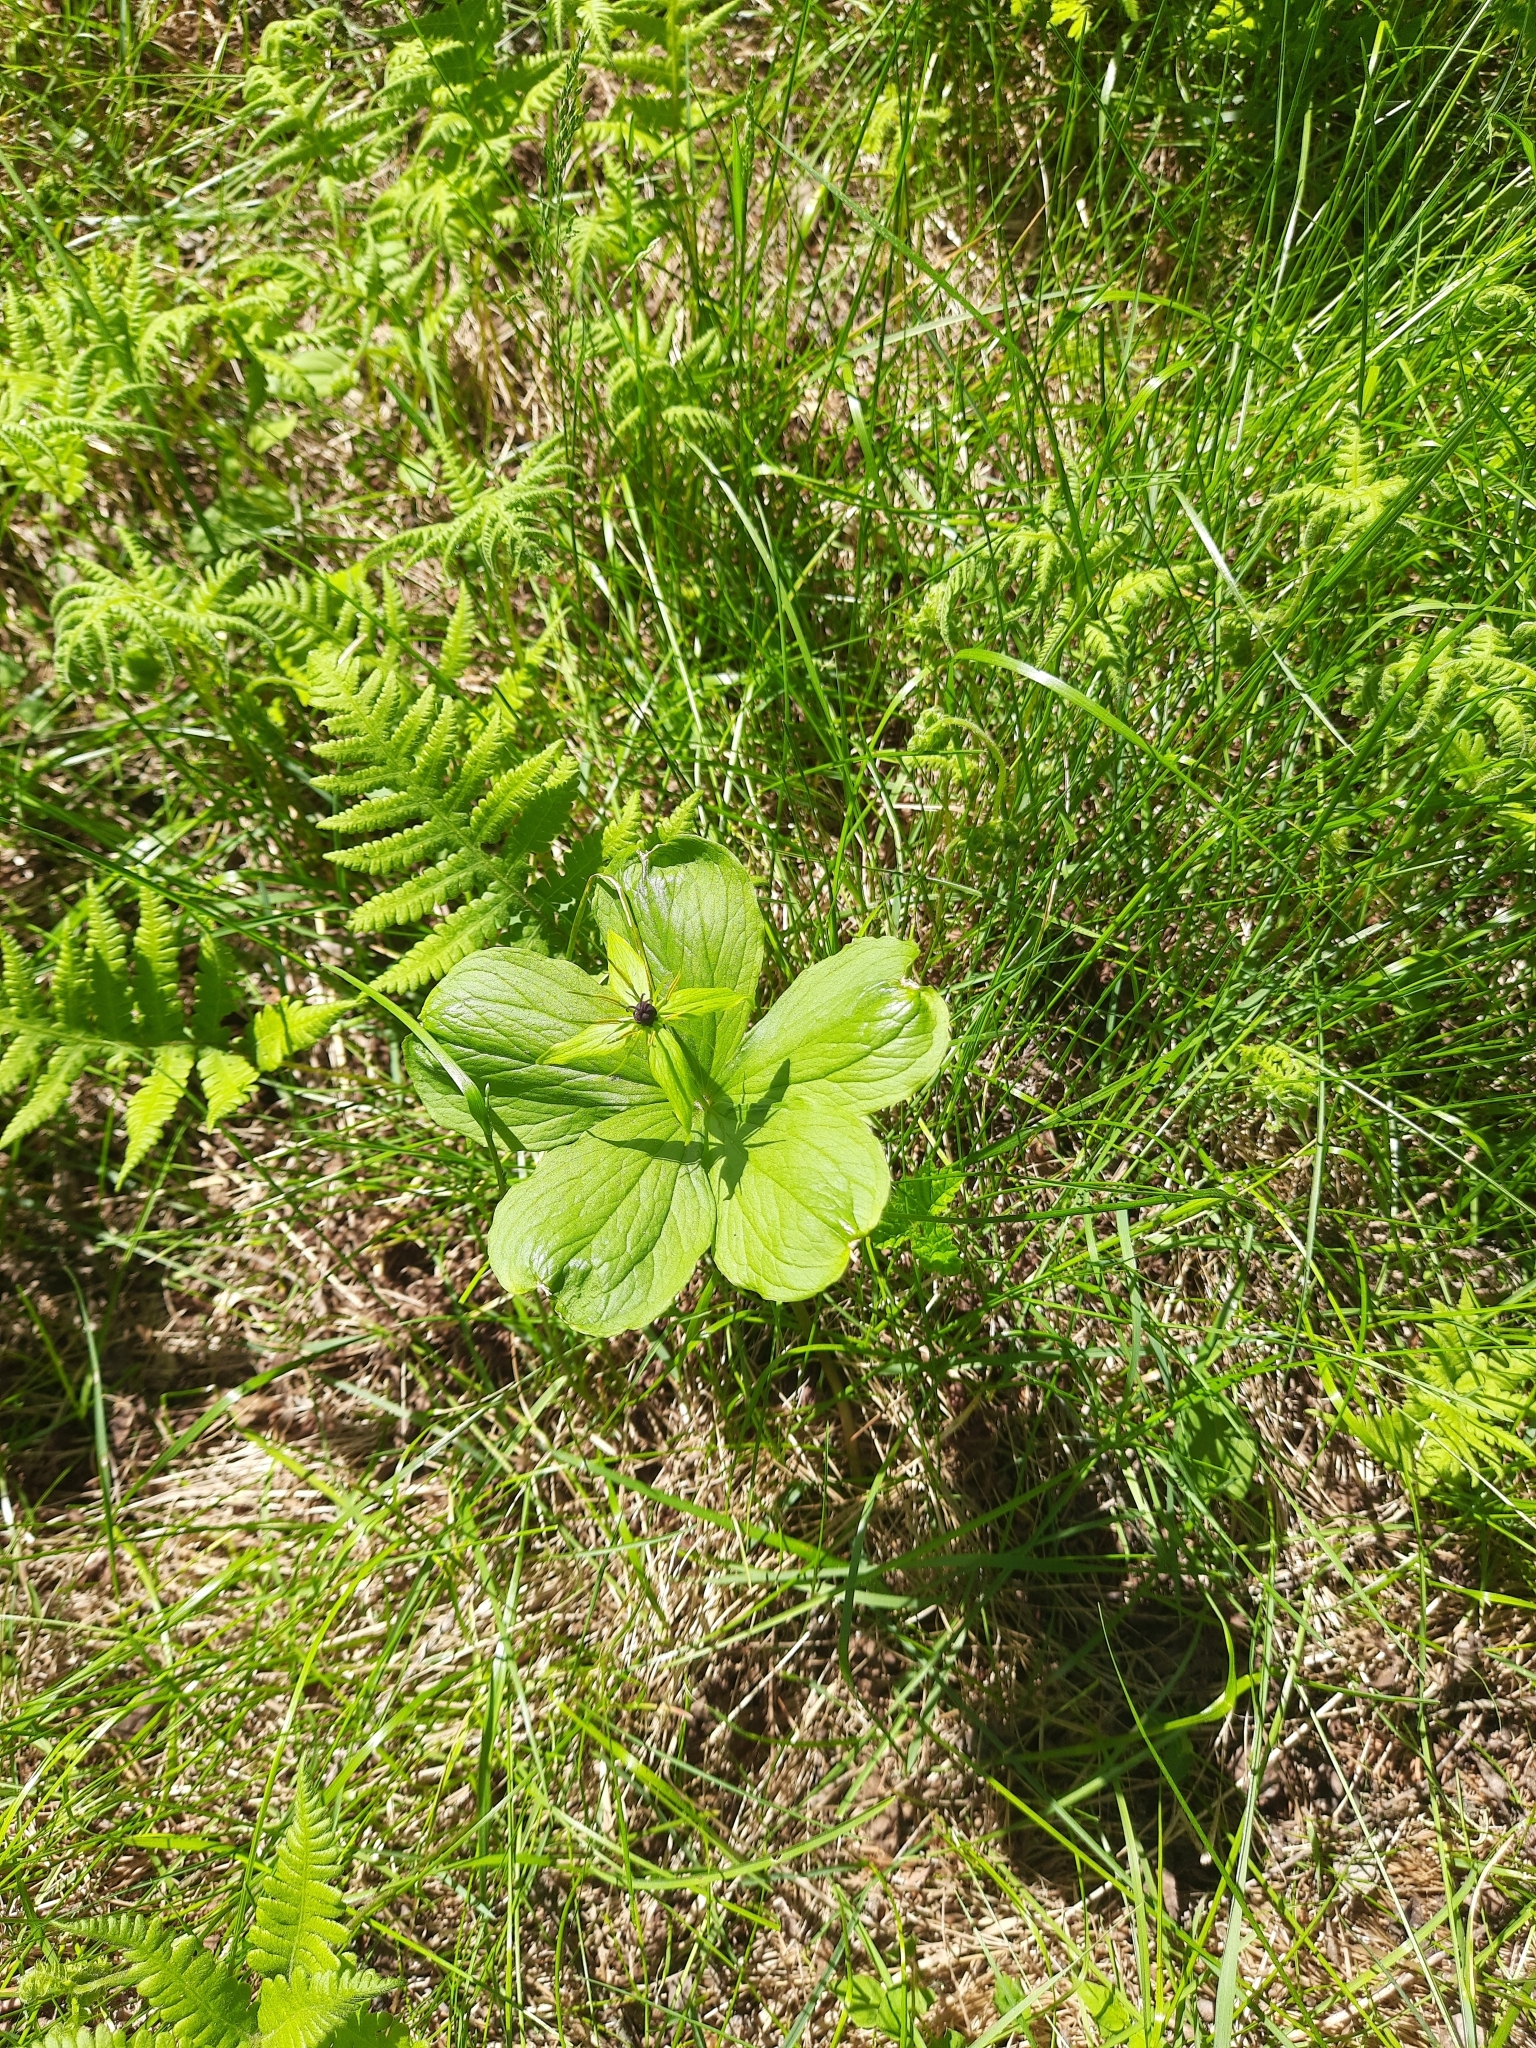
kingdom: Plantae
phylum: Tracheophyta
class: Liliopsida
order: Liliales
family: Melanthiaceae
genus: Paris
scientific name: Paris quadrifolia
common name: Herb-paris
